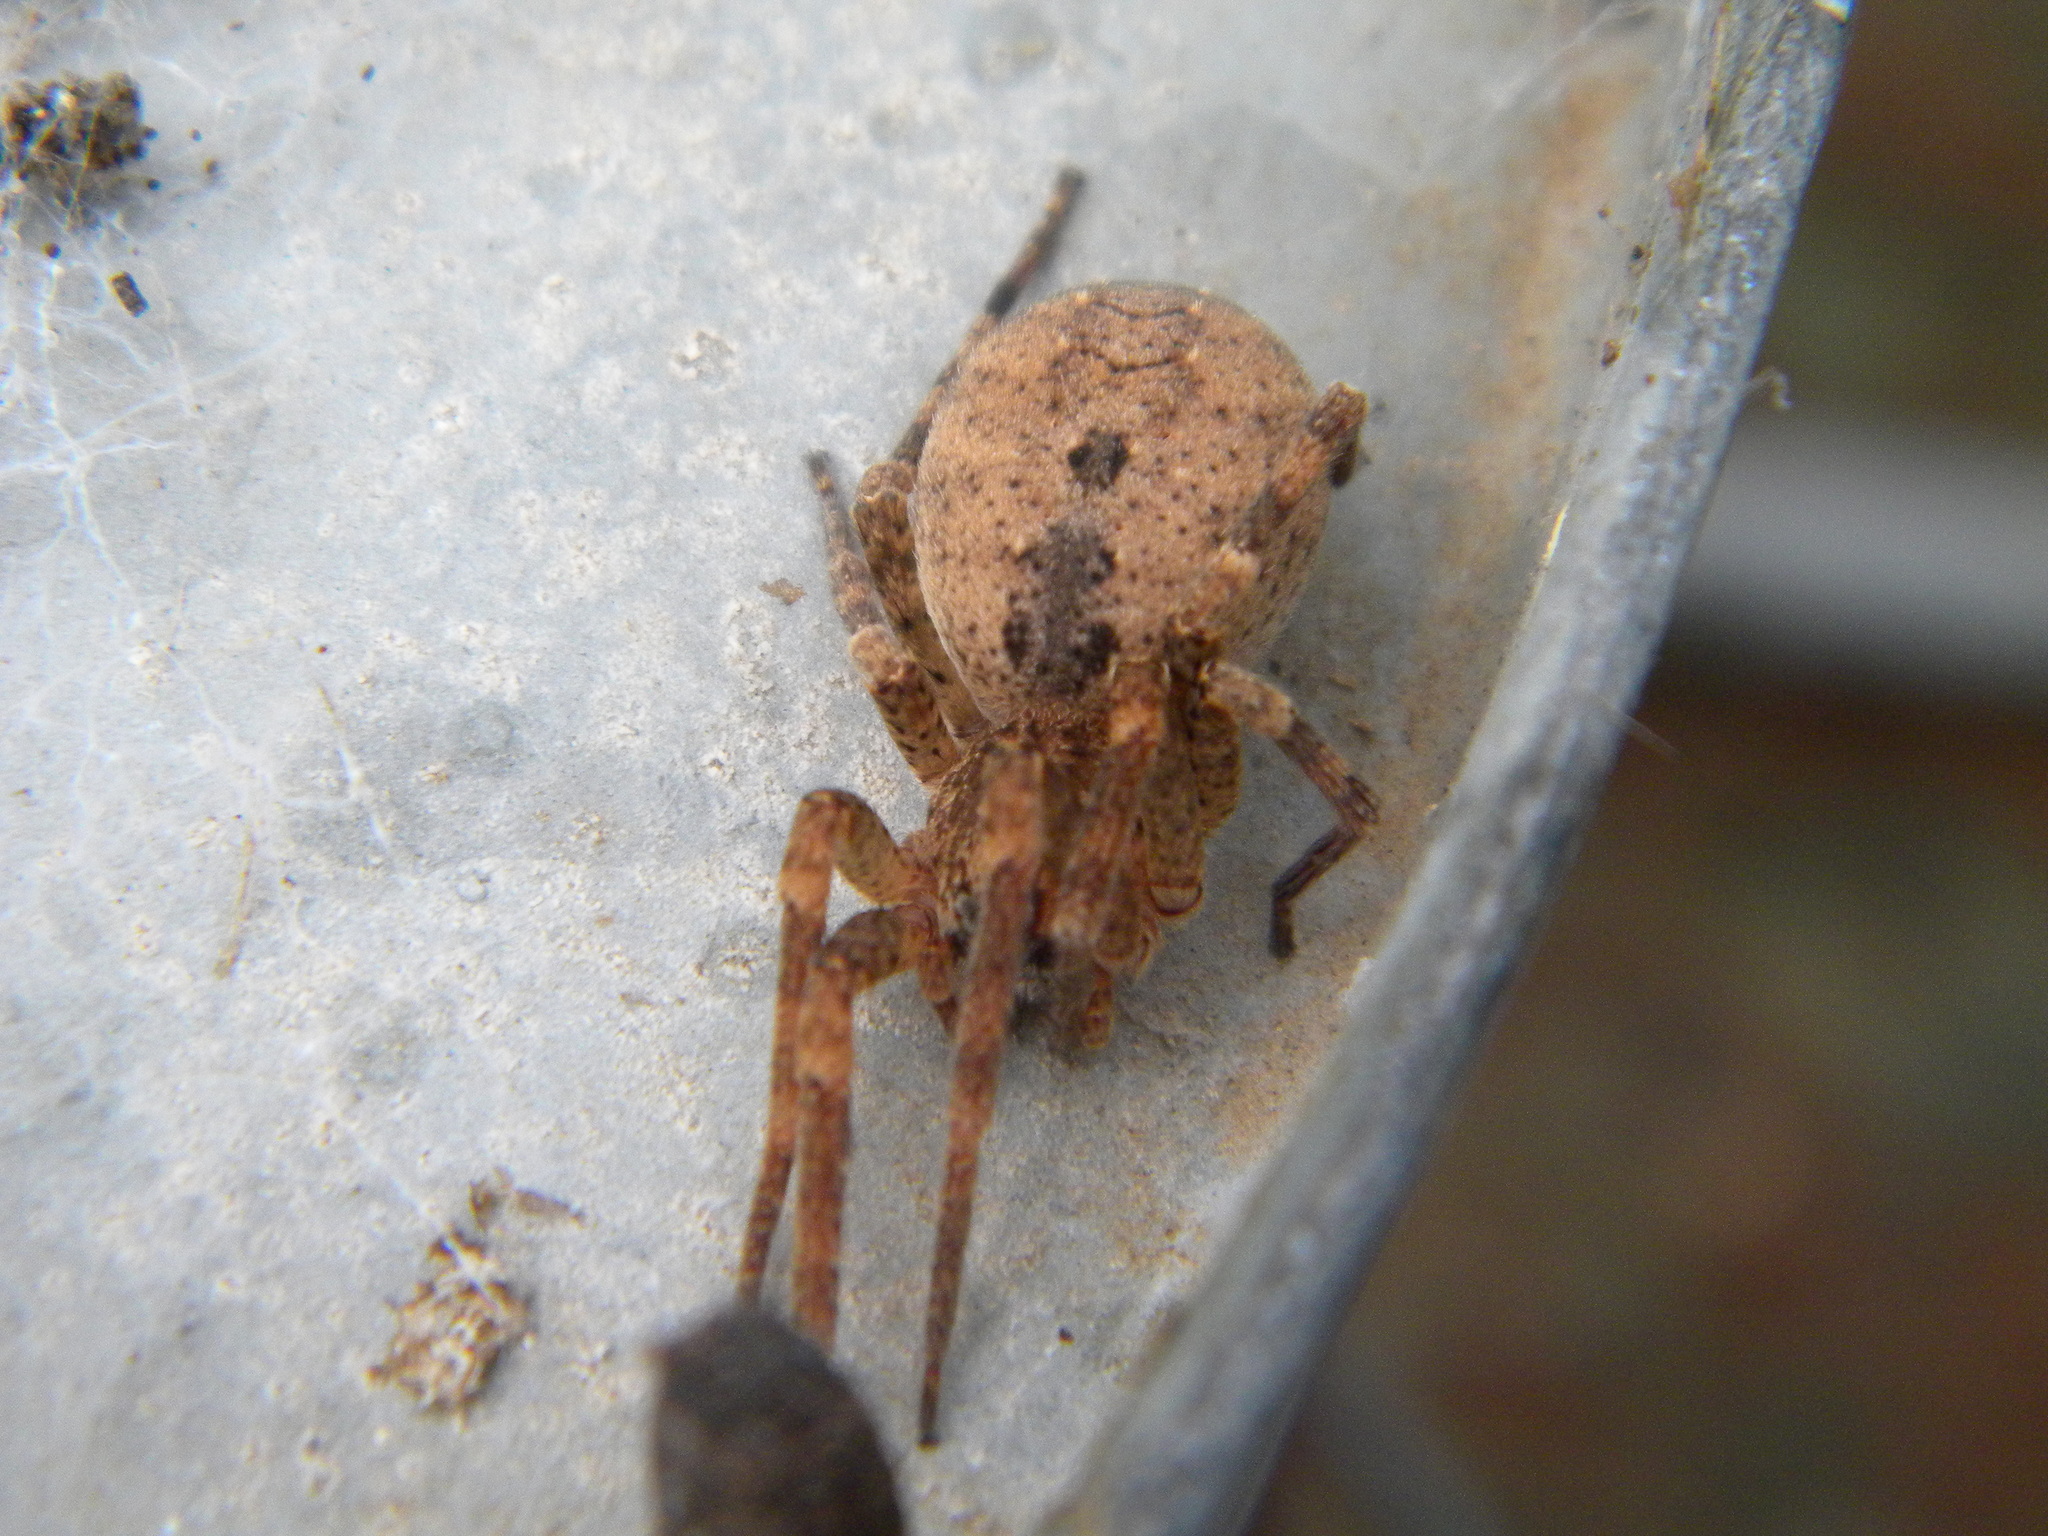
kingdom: Animalia
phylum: Arthropoda
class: Arachnida
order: Araneae
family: Zoropsidae
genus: Zoropsis
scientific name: Zoropsis lutea
